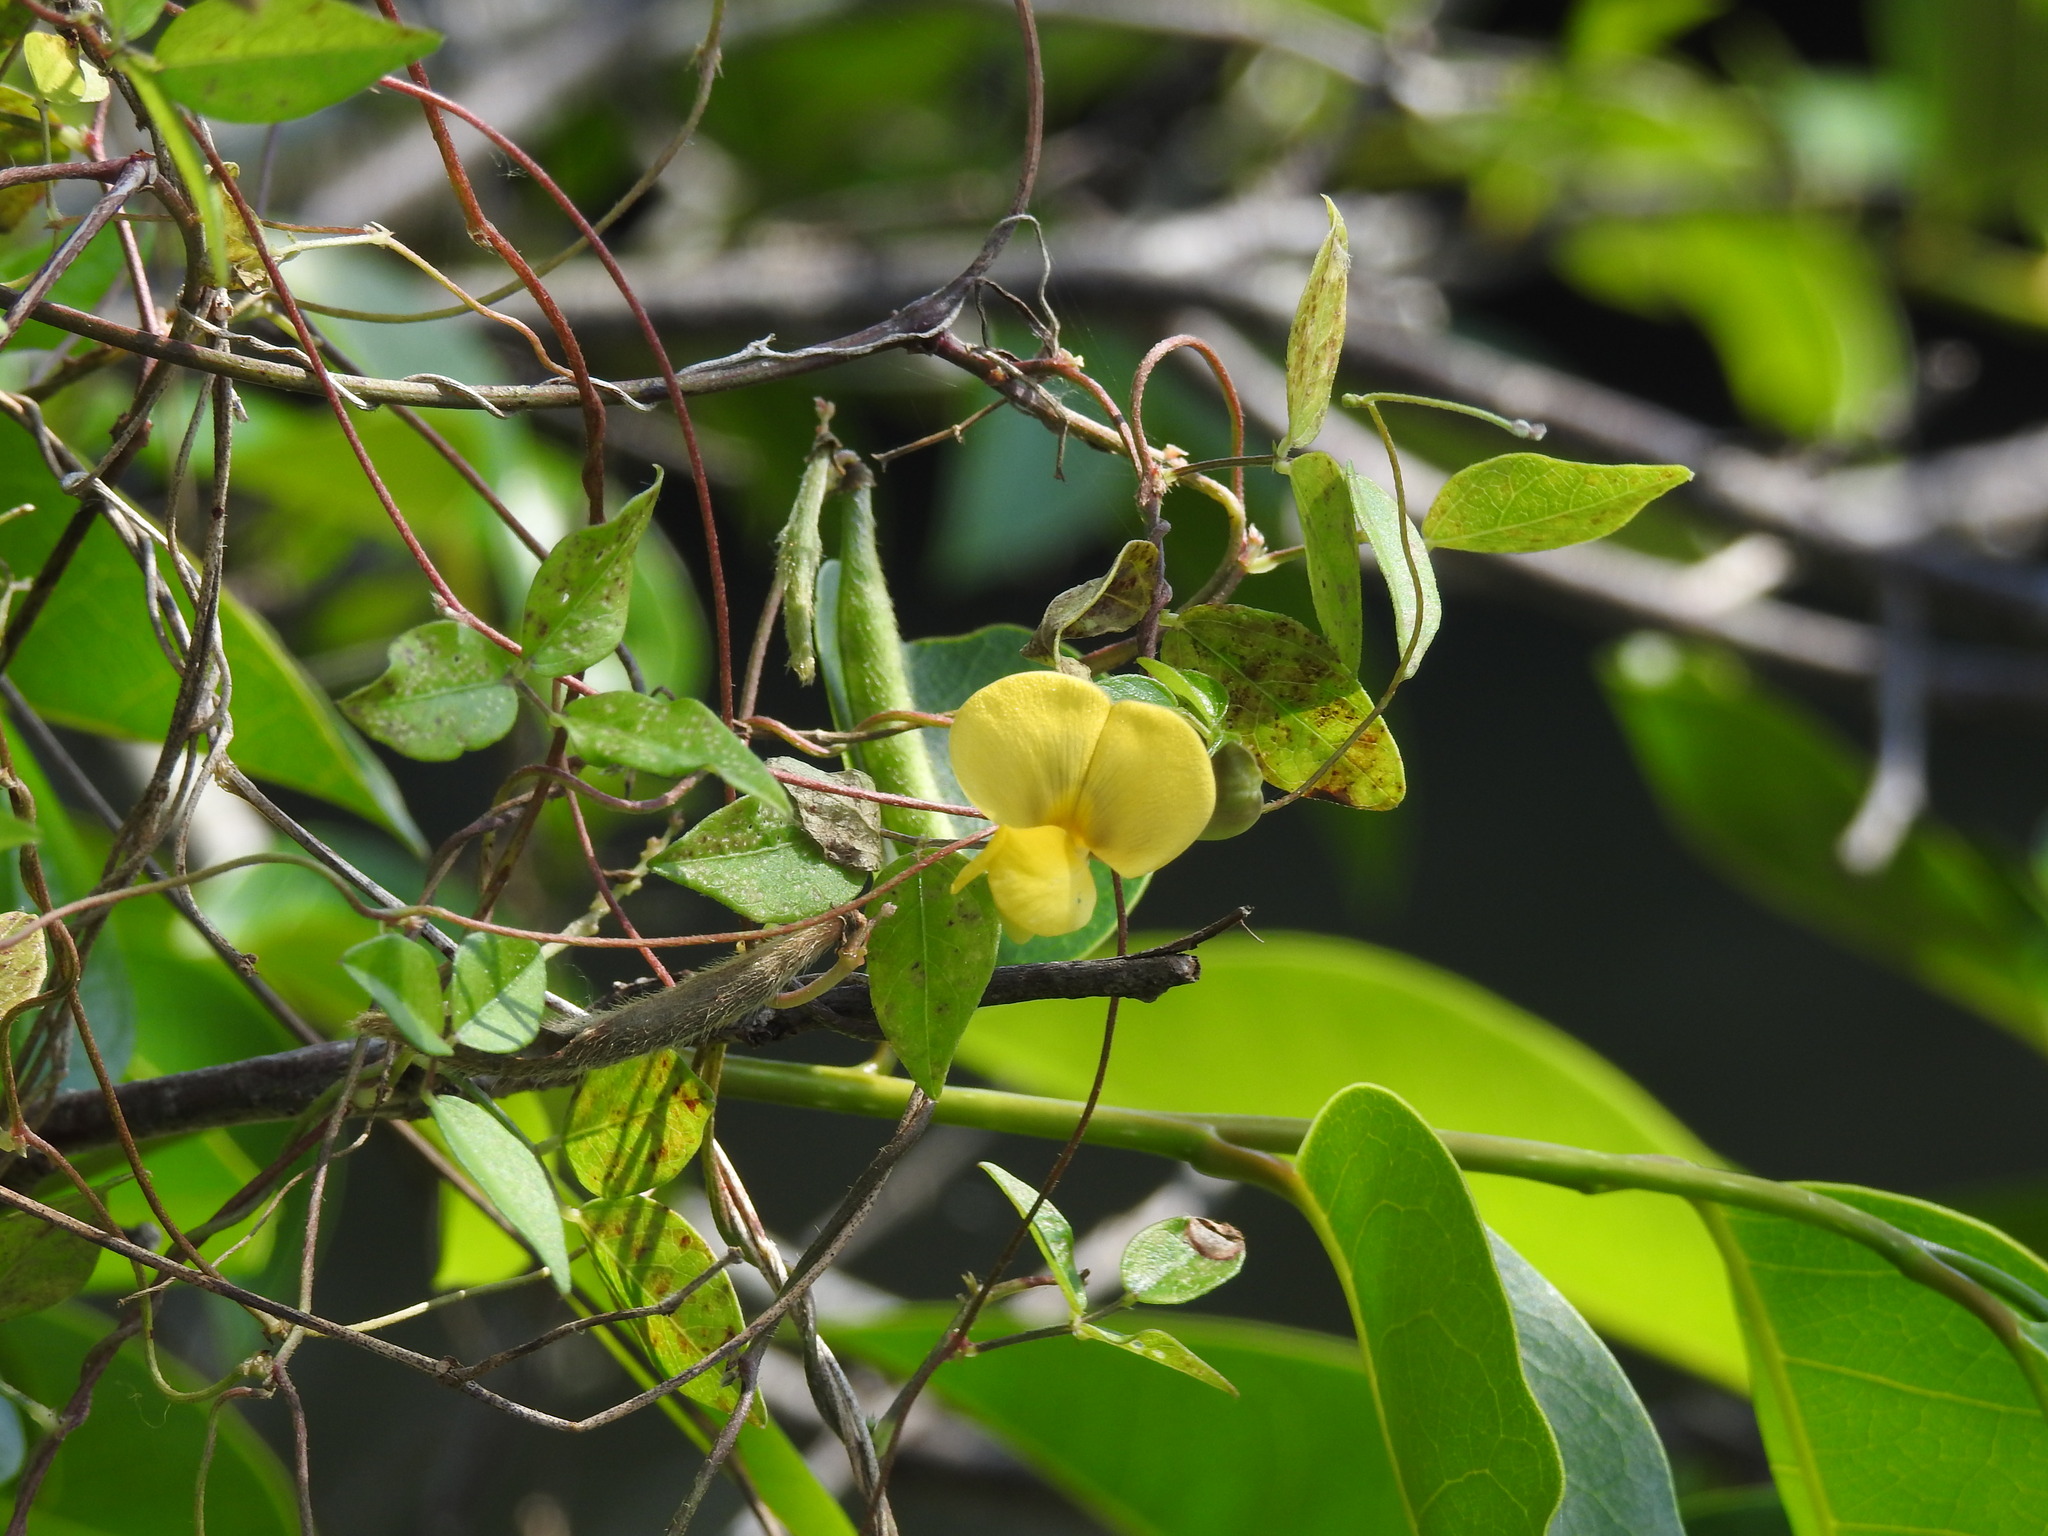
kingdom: Plantae
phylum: Tracheophyta
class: Magnoliopsida
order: Fabales
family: Fabaceae
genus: Vigna
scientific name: Vigna luteola
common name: Hairypod cowpea
